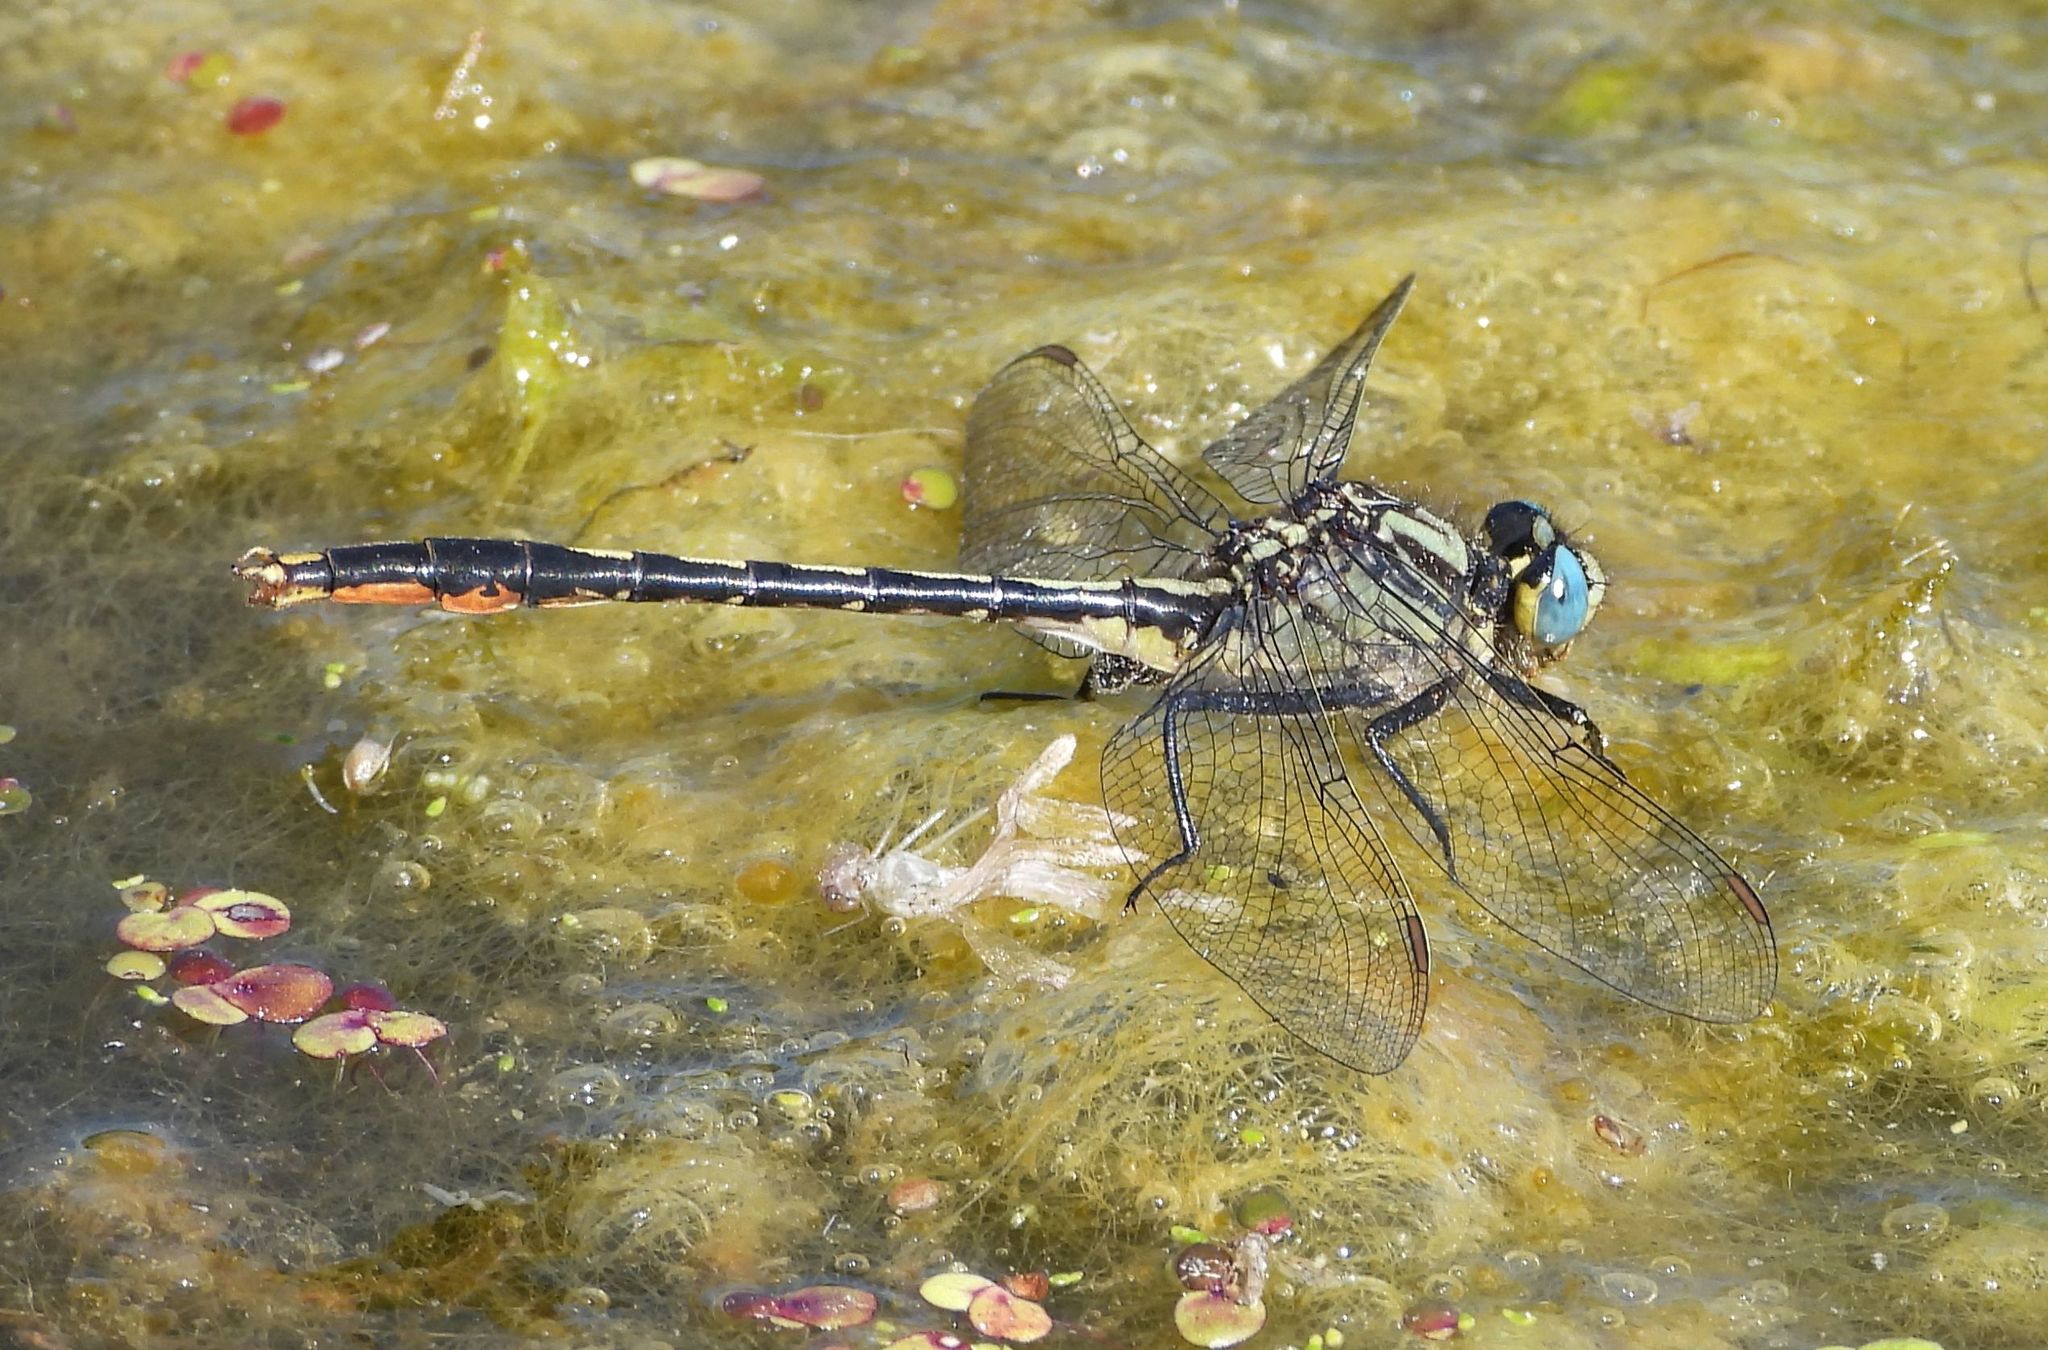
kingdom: Animalia
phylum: Arthropoda
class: Insecta
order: Odonata
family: Gomphidae
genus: Arigomphus
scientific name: Arigomphus furcifer
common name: Lilypad clubtail
